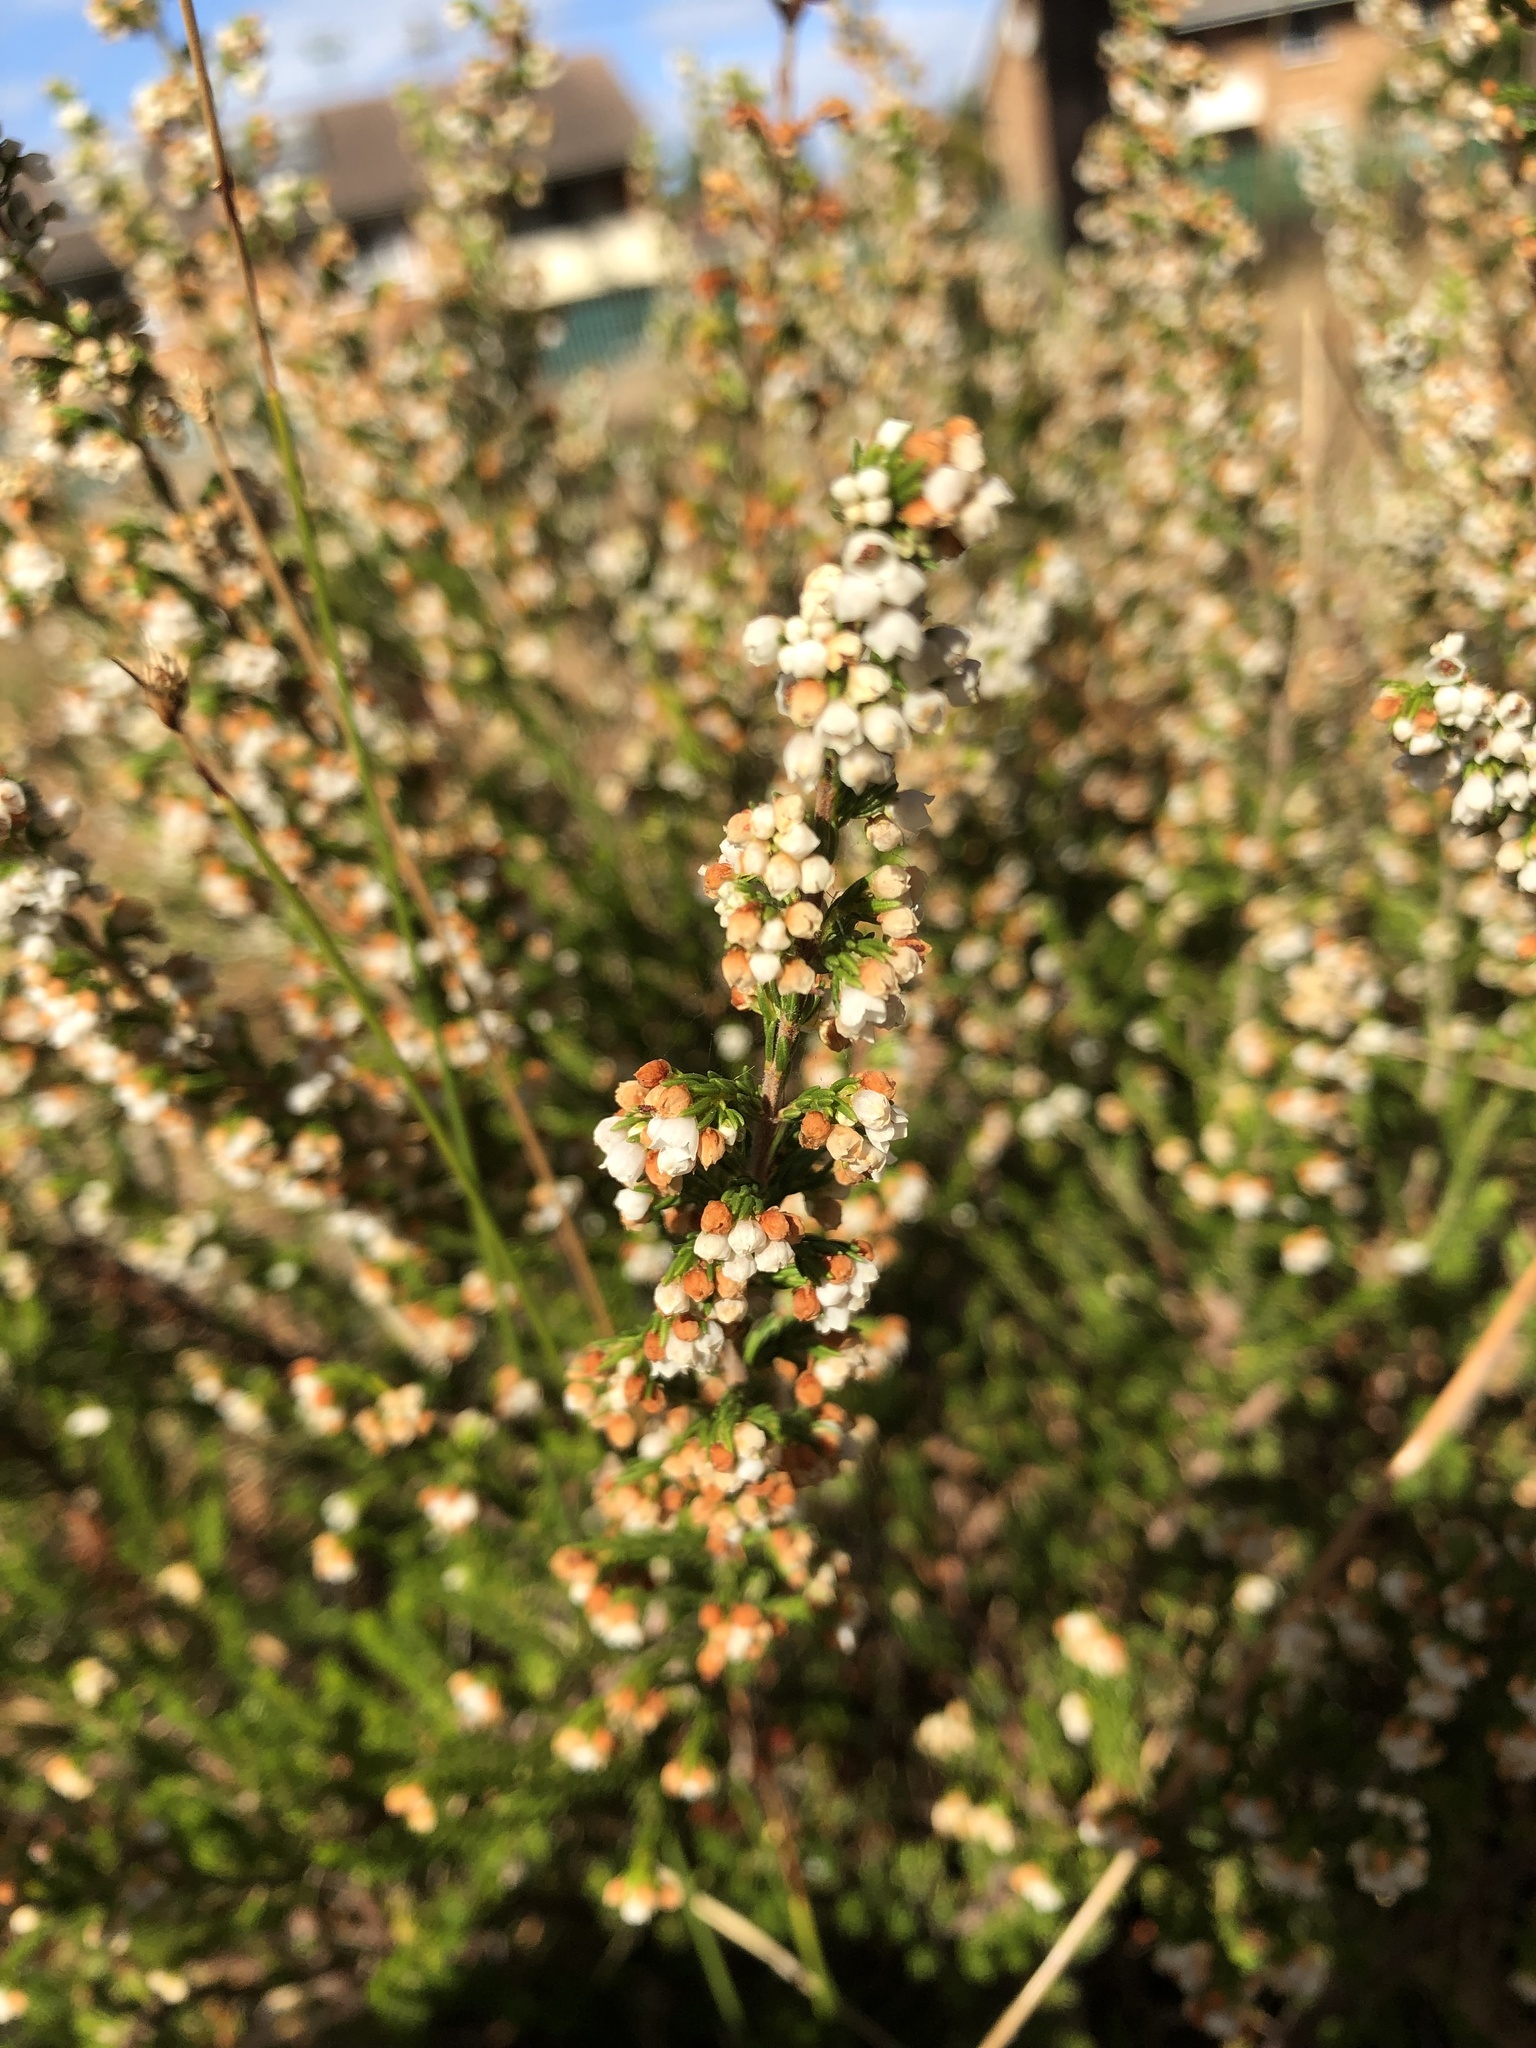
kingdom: Plantae
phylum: Tracheophyta
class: Magnoliopsida
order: Ericales
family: Ericaceae
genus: Erica
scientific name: Erica subdivaricata
